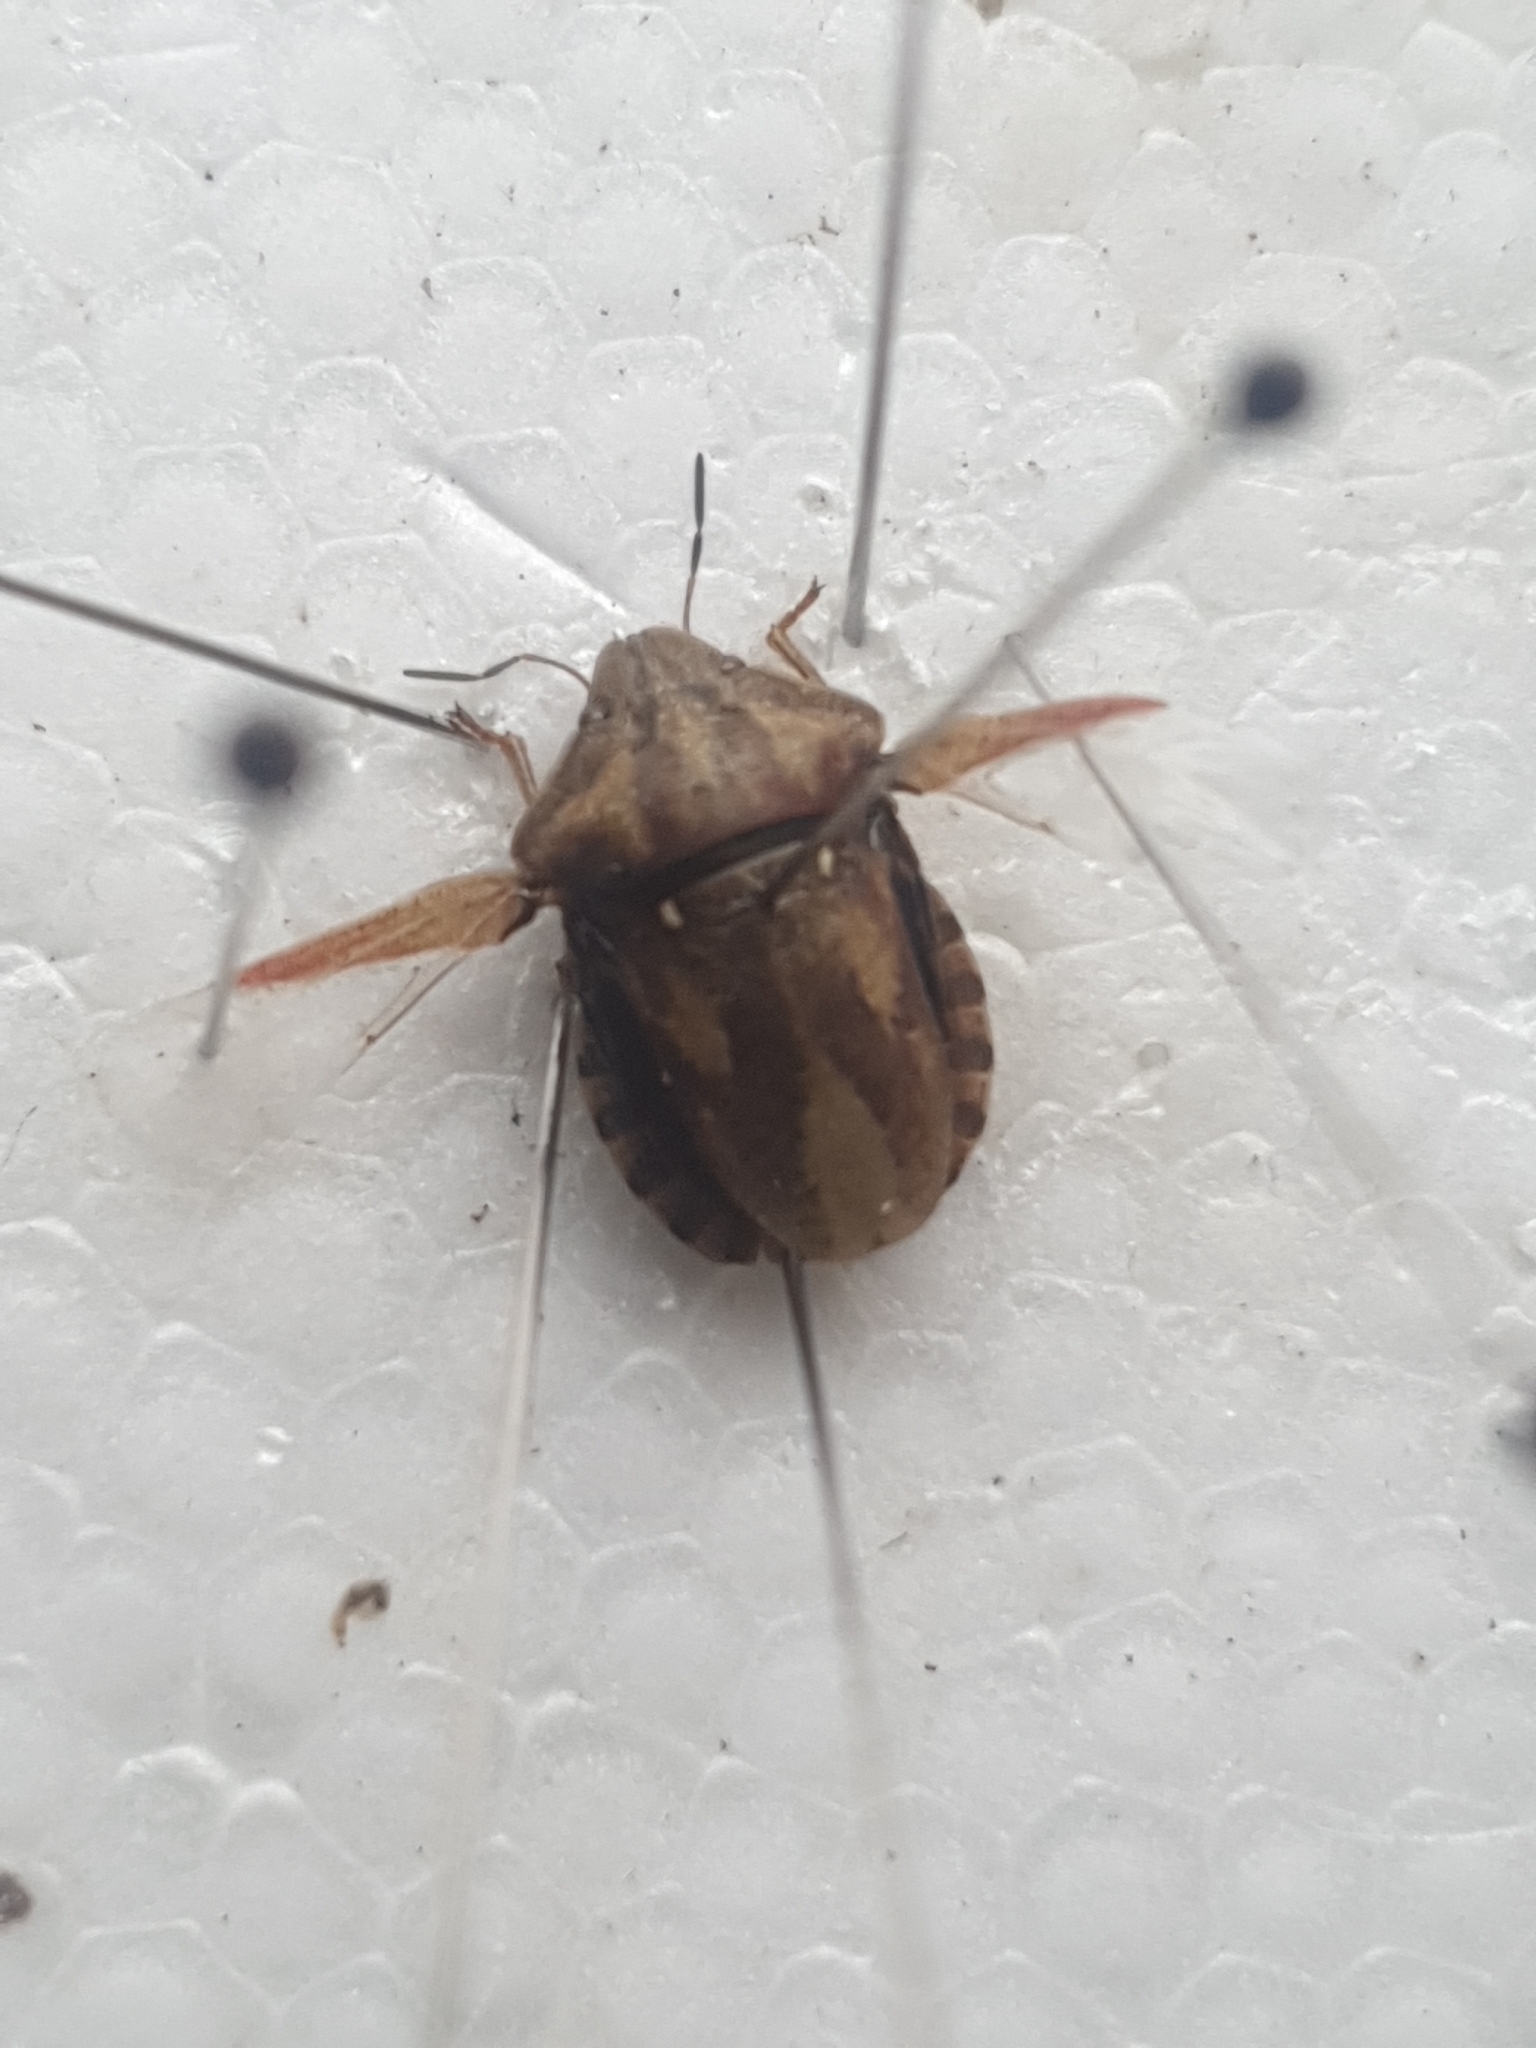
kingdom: Animalia
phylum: Arthropoda
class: Insecta
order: Hemiptera
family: Scutelleridae
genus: Eurygaster
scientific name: Eurygaster testudinaria
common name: Tortoise bug
